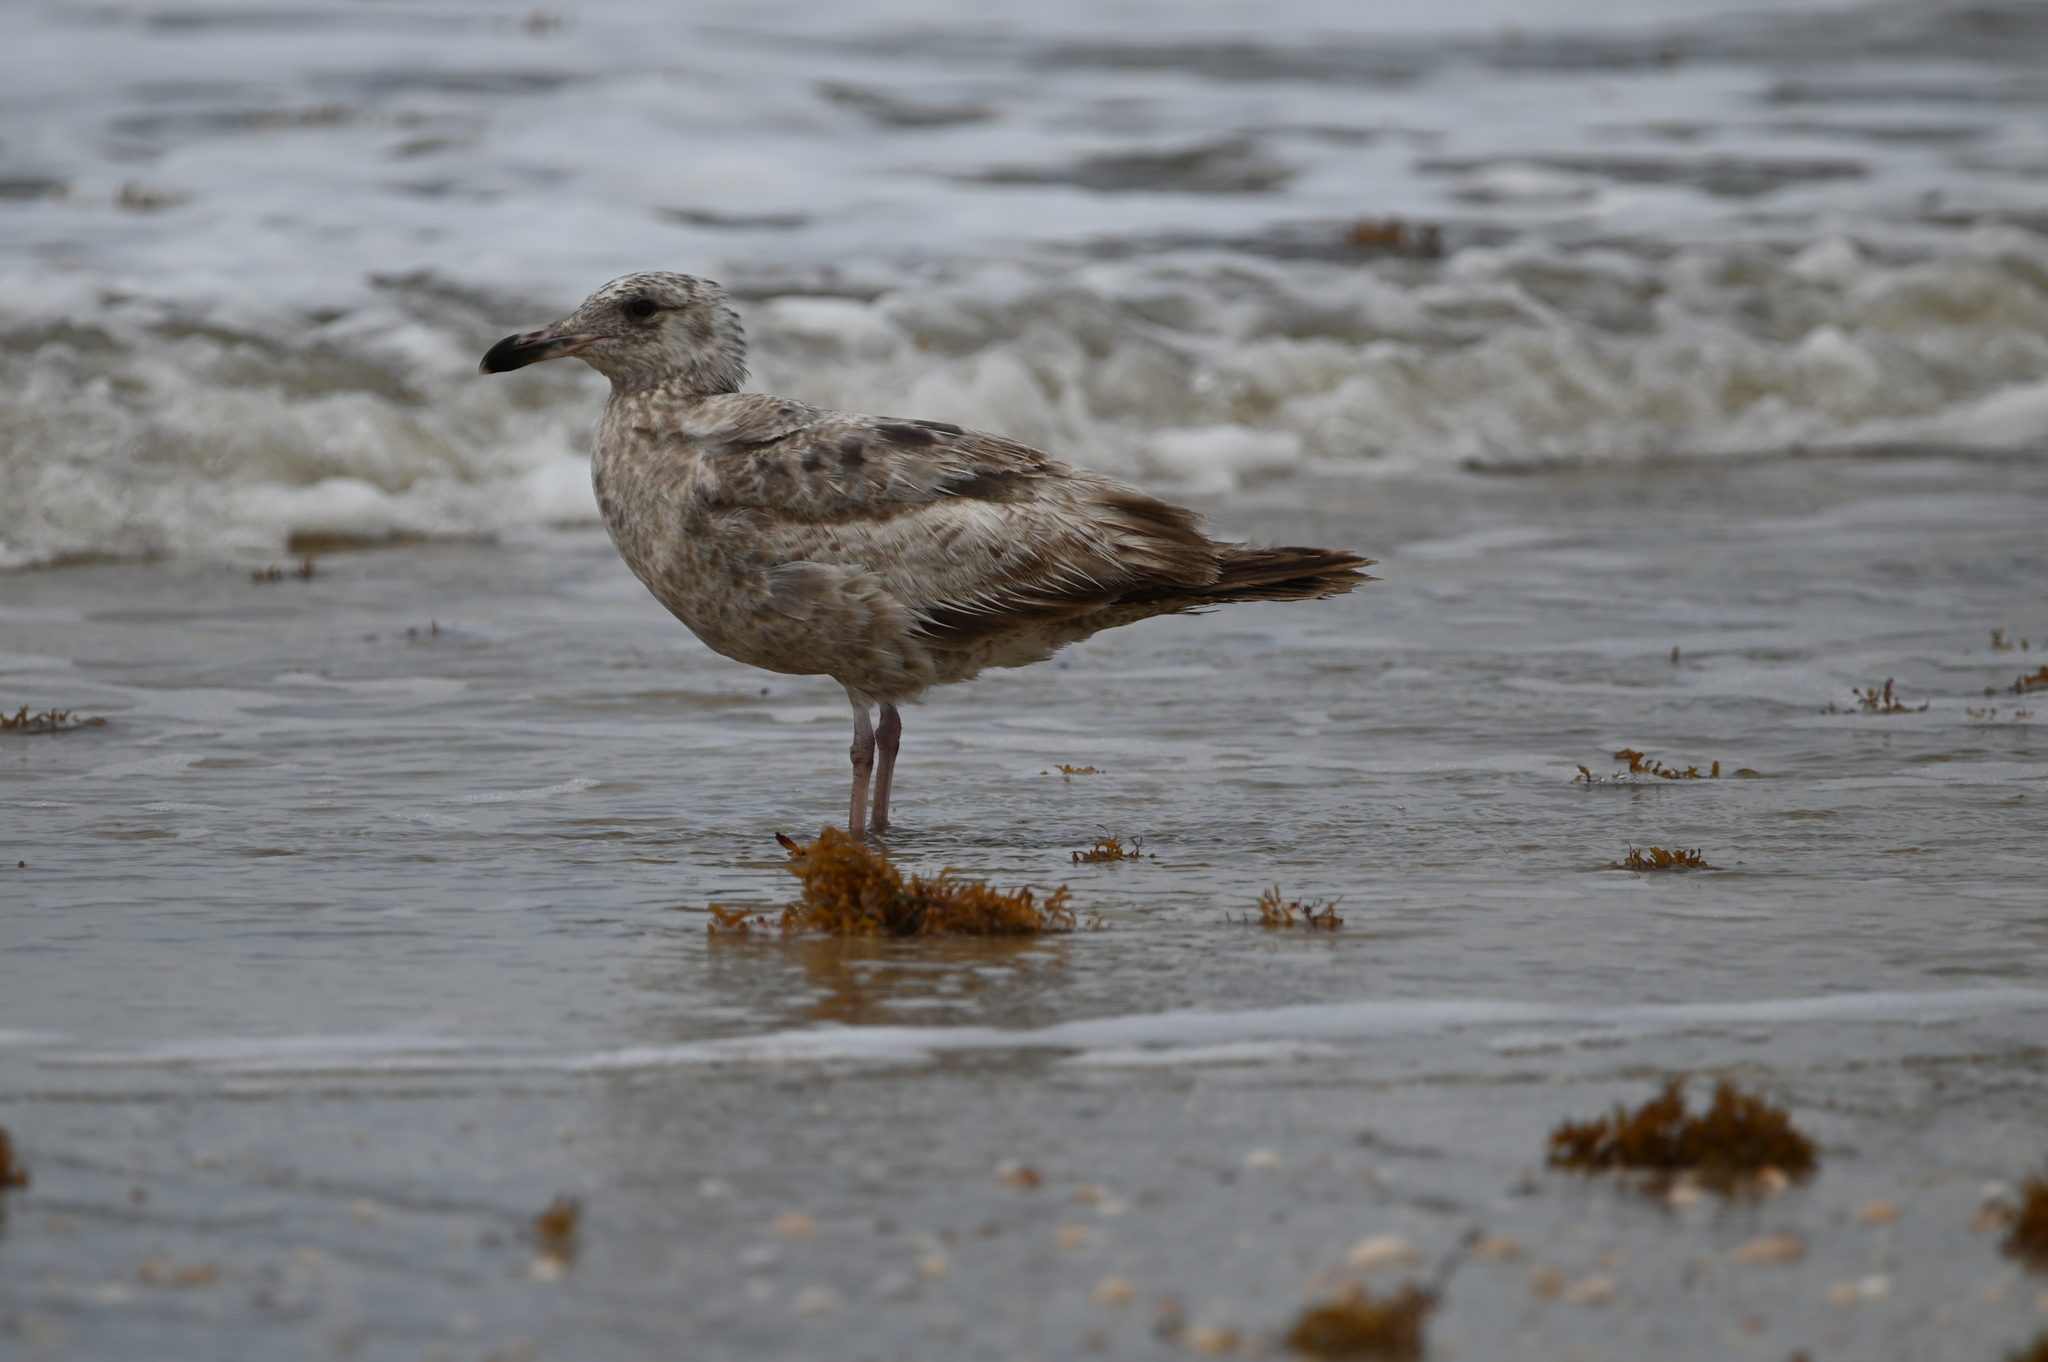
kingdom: Animalia
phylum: Chordata
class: Aves
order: Charadriiformes
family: Laridae
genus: Larus
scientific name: Larus argentatus
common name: Herring gull
